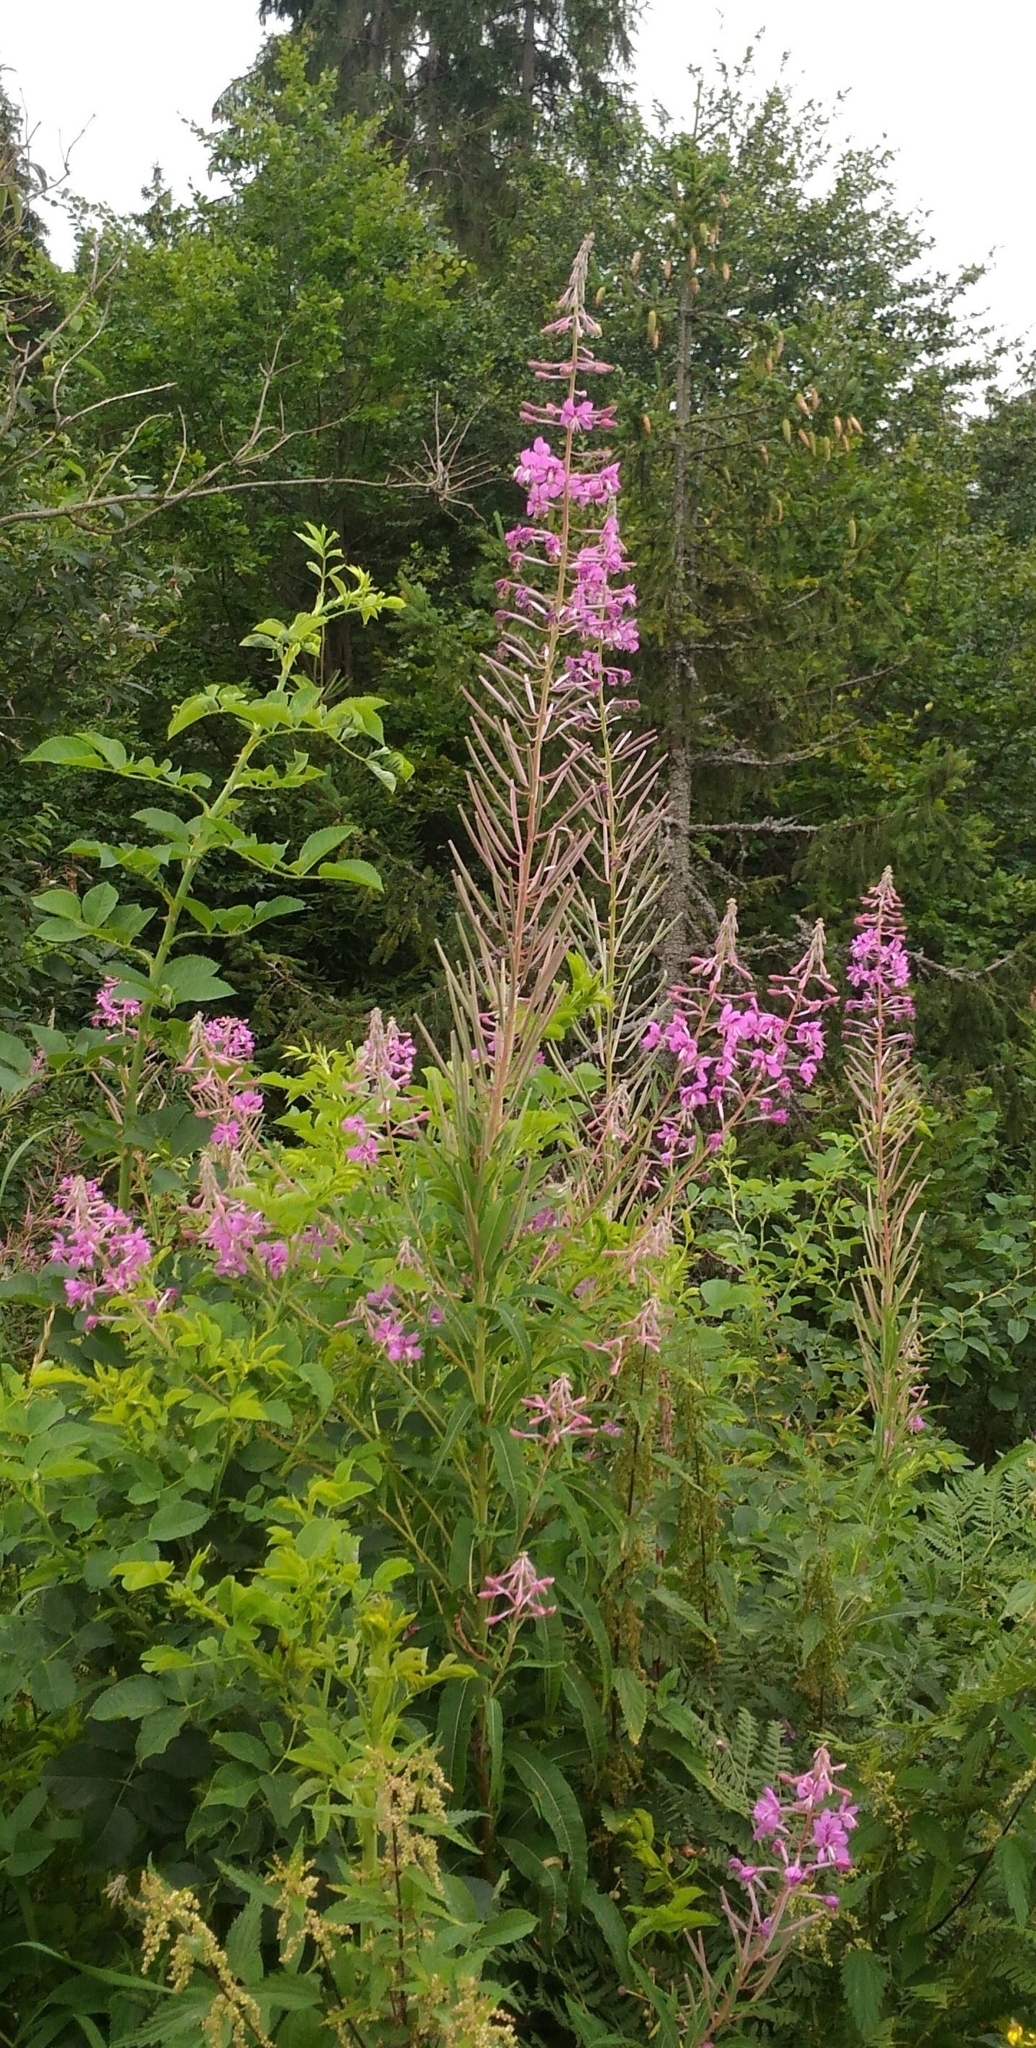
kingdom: Plantae
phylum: Tracheophyta
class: Magnoliopsida
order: Myrtales
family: Onagraceae
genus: Chamaenerion
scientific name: Chamaenerion angustifolium
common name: Fireweed
